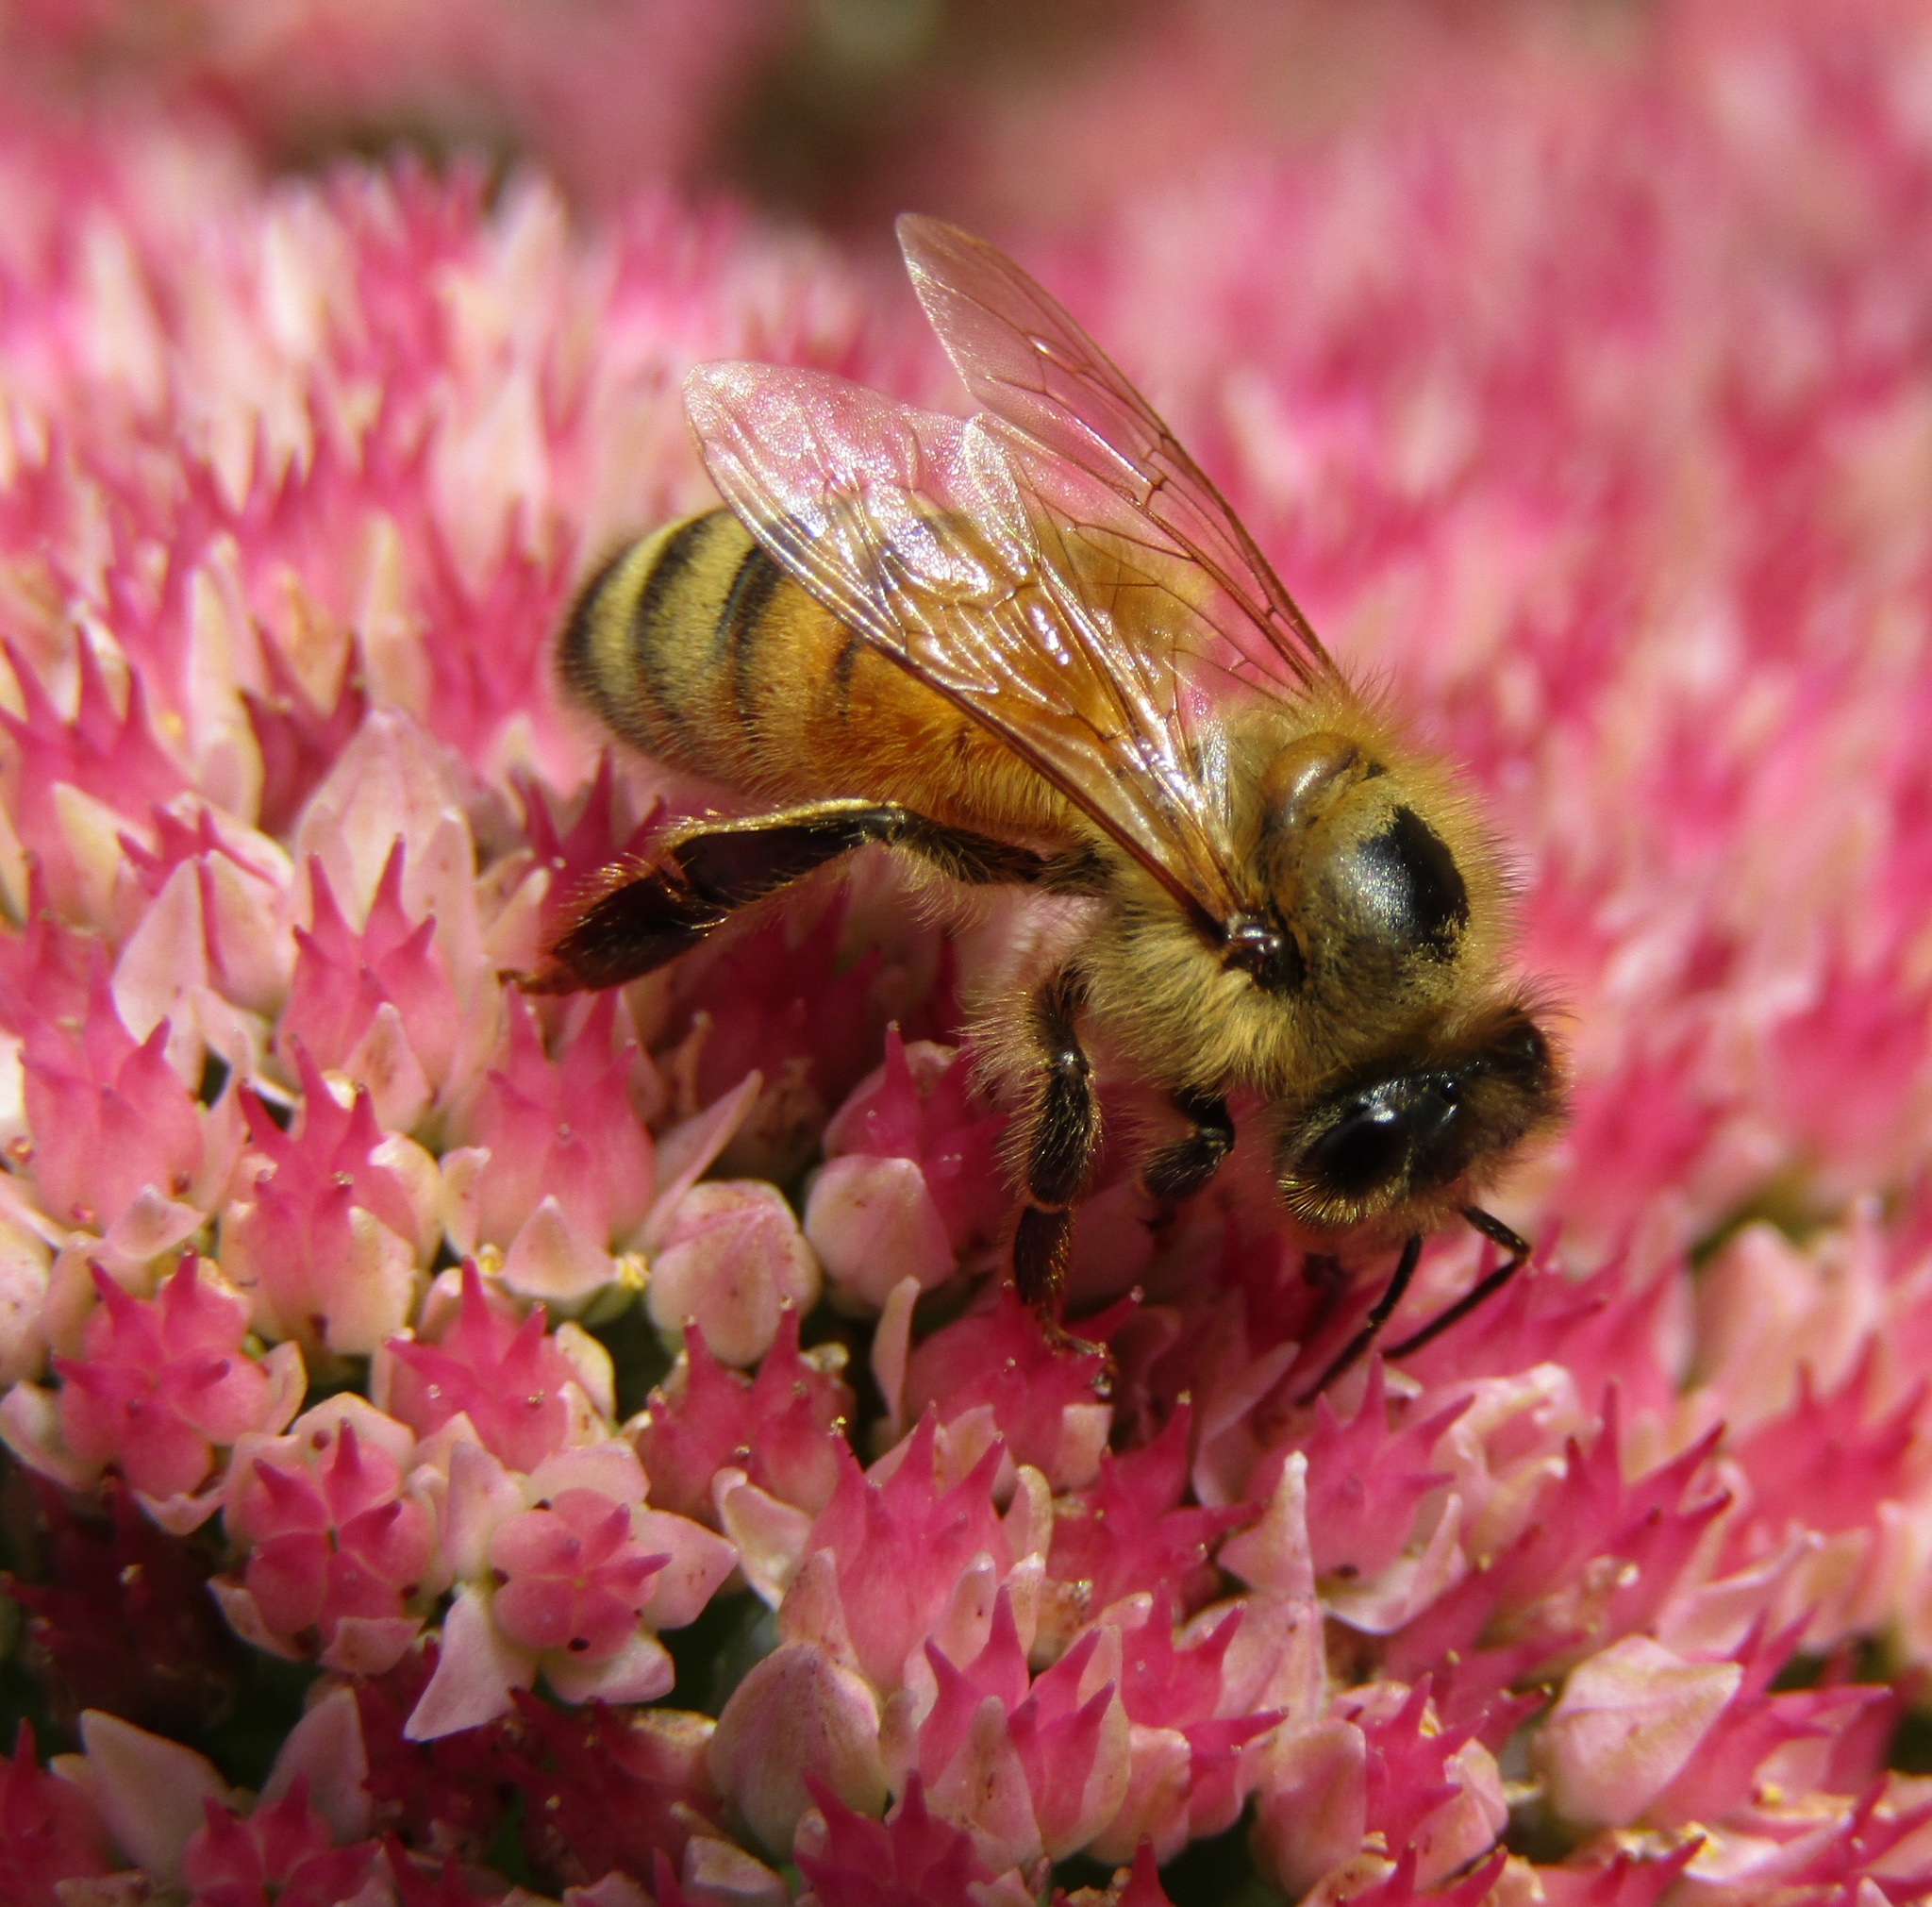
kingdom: Animalia
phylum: Arthropoda
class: Insecta
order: Hymenoptera
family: Apidae
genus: Apis
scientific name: Apis mellifera
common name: Honey bee
